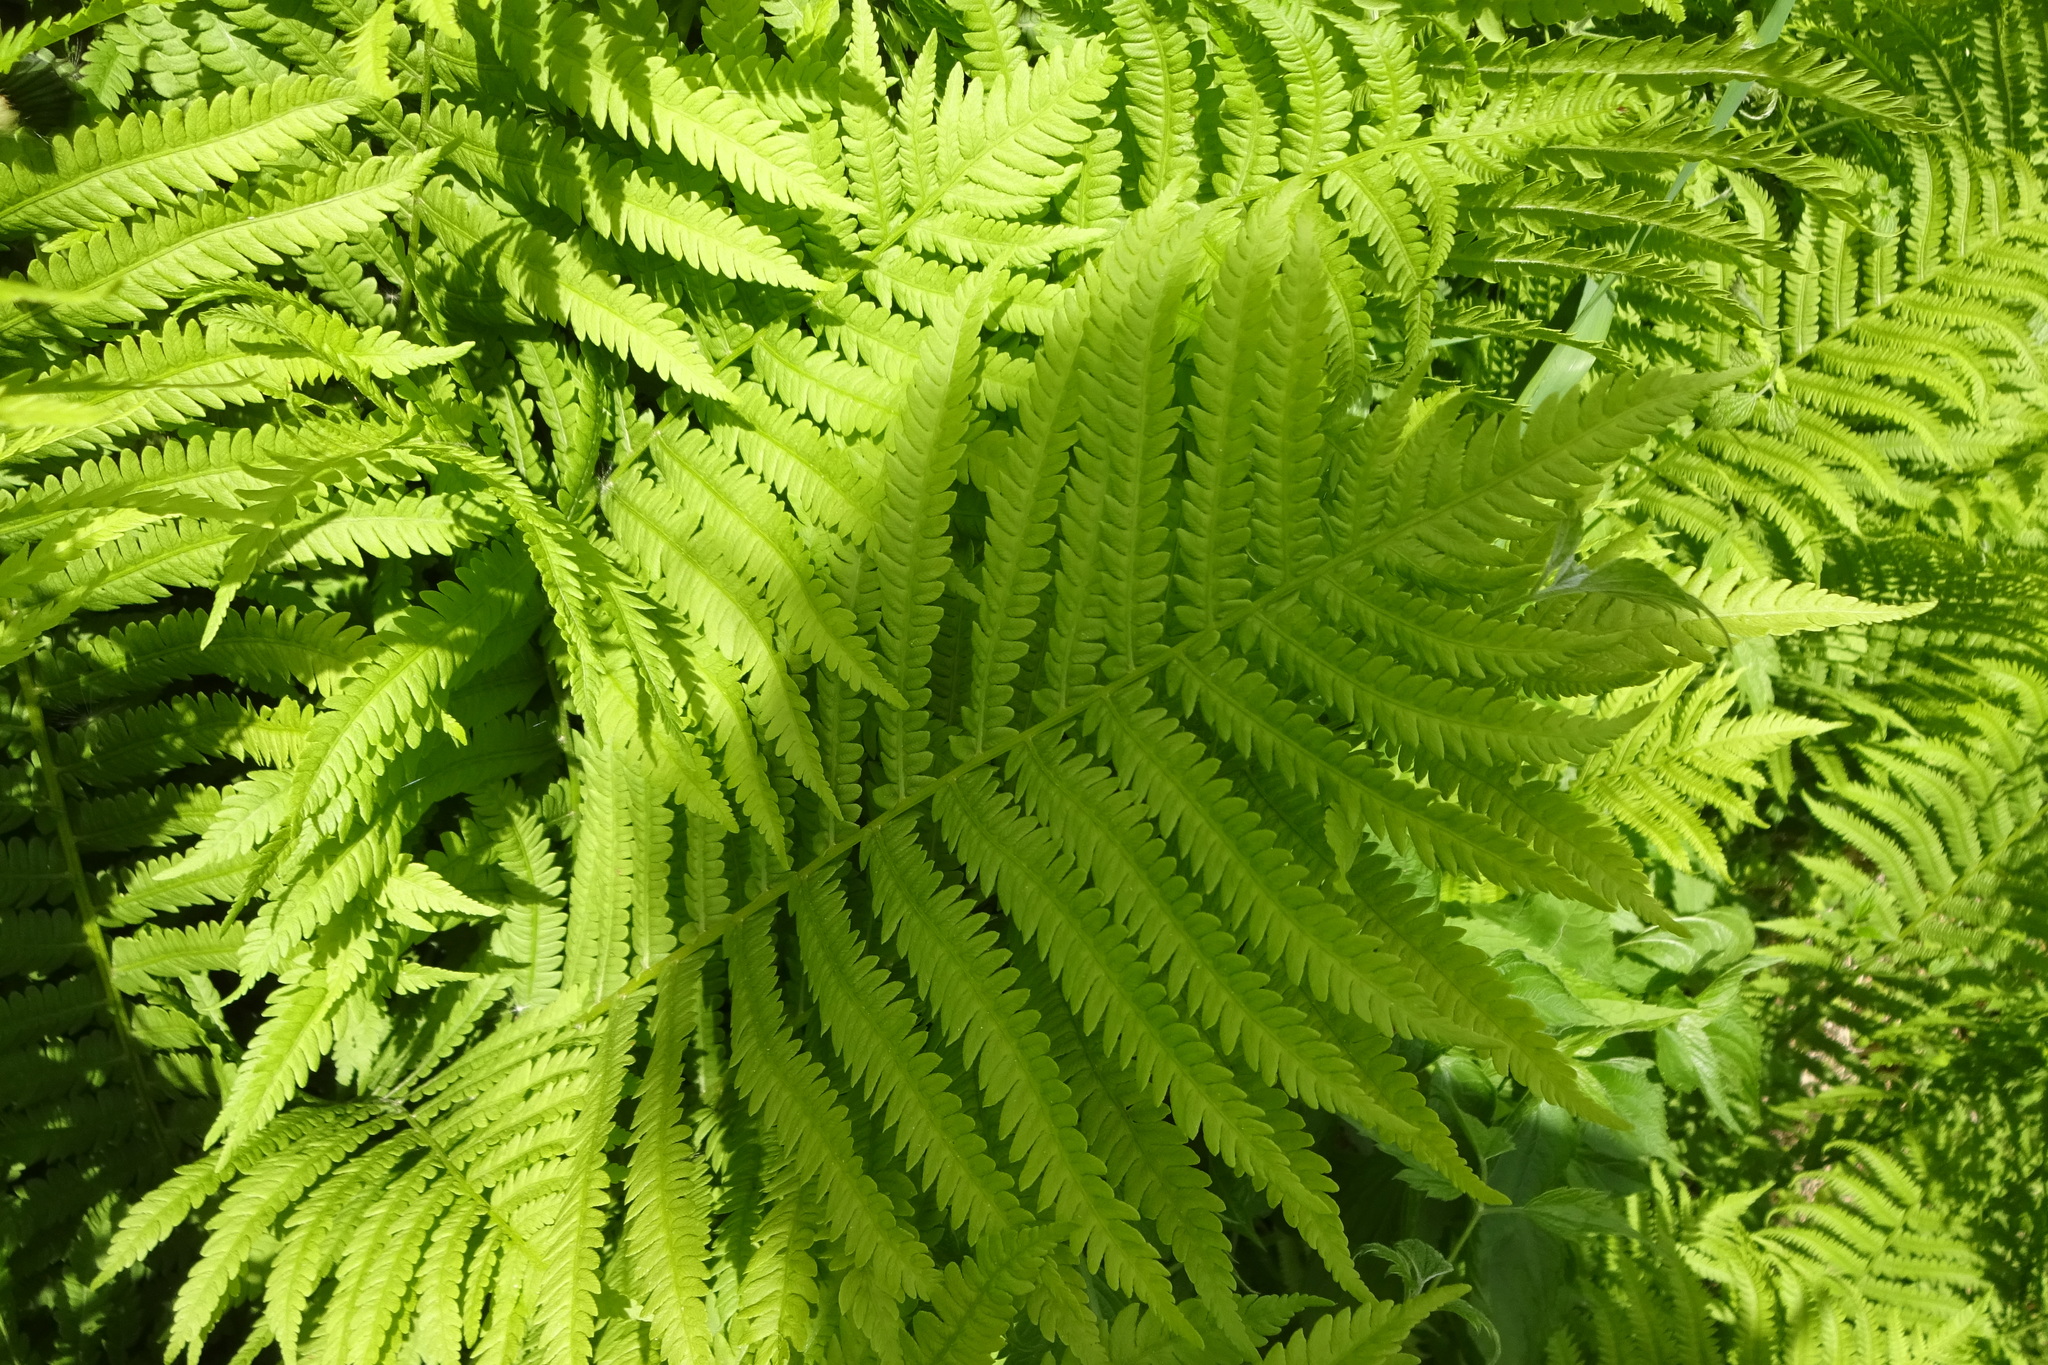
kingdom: Plantae
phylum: Tracheophyta
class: Polypodiopsida
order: Polypodiales
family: Onocleaceae
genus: Matteuccia
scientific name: Matteuccia struthiopteris
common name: Ostrich fern
